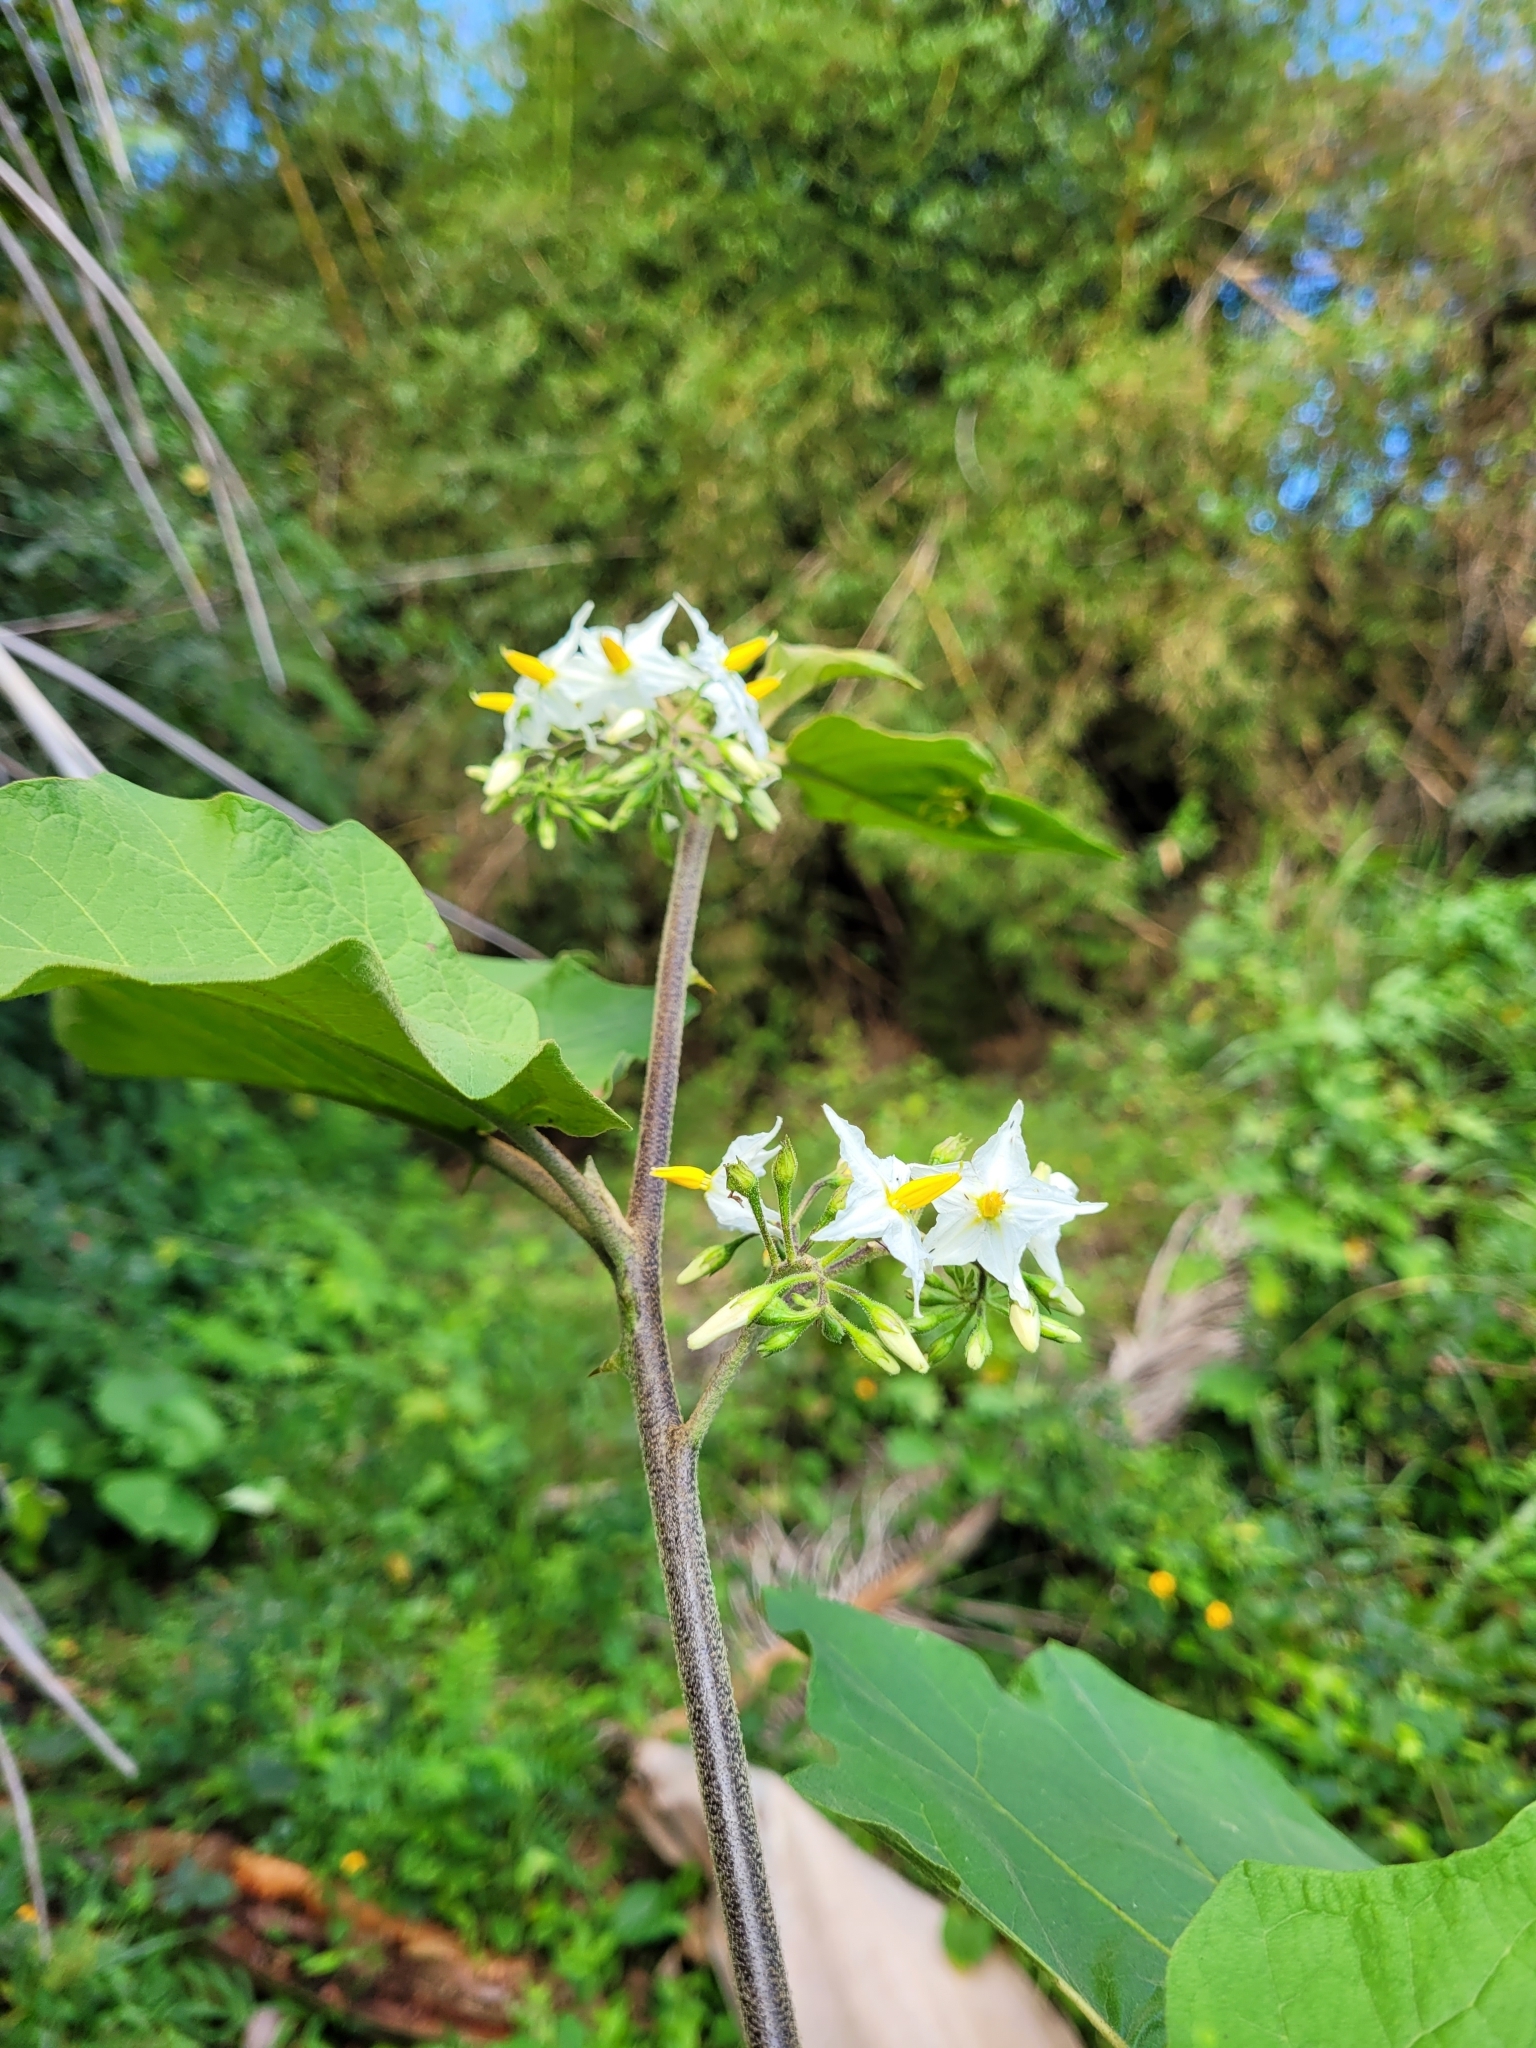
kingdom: Plantae
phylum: Tracheophyta
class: Magnoliopsida
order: Solanales
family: Solanaceae
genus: Solanum
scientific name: Solanum torvum
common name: Turkey berry
